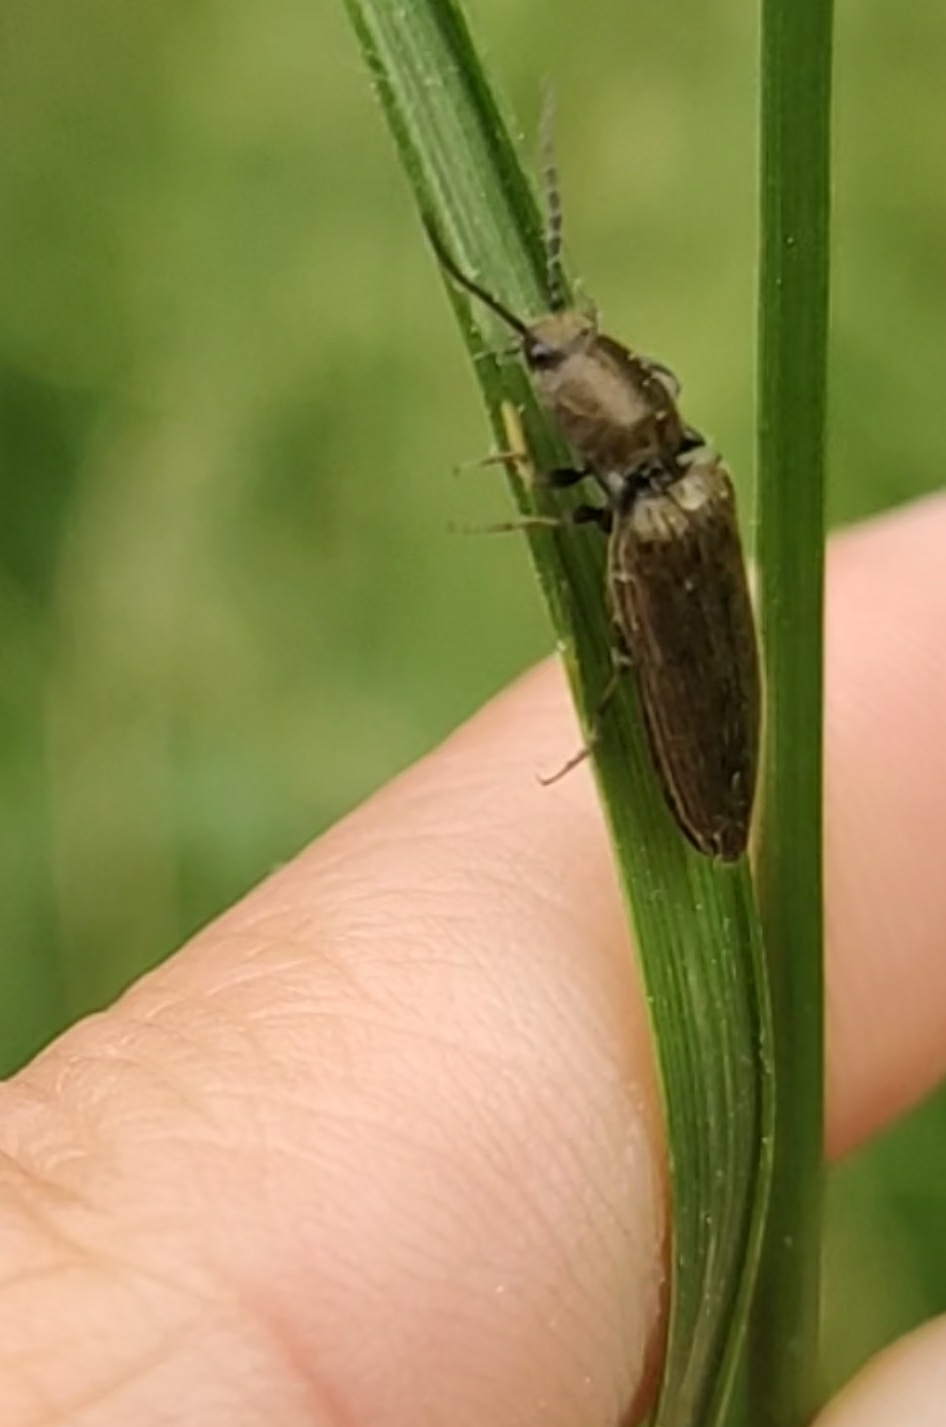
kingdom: Animalia
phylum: Arthropoda
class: Insecta
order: Coleoptera
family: Elateridae
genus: Sylvanelater
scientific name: Sylvanelater cylindriformis
